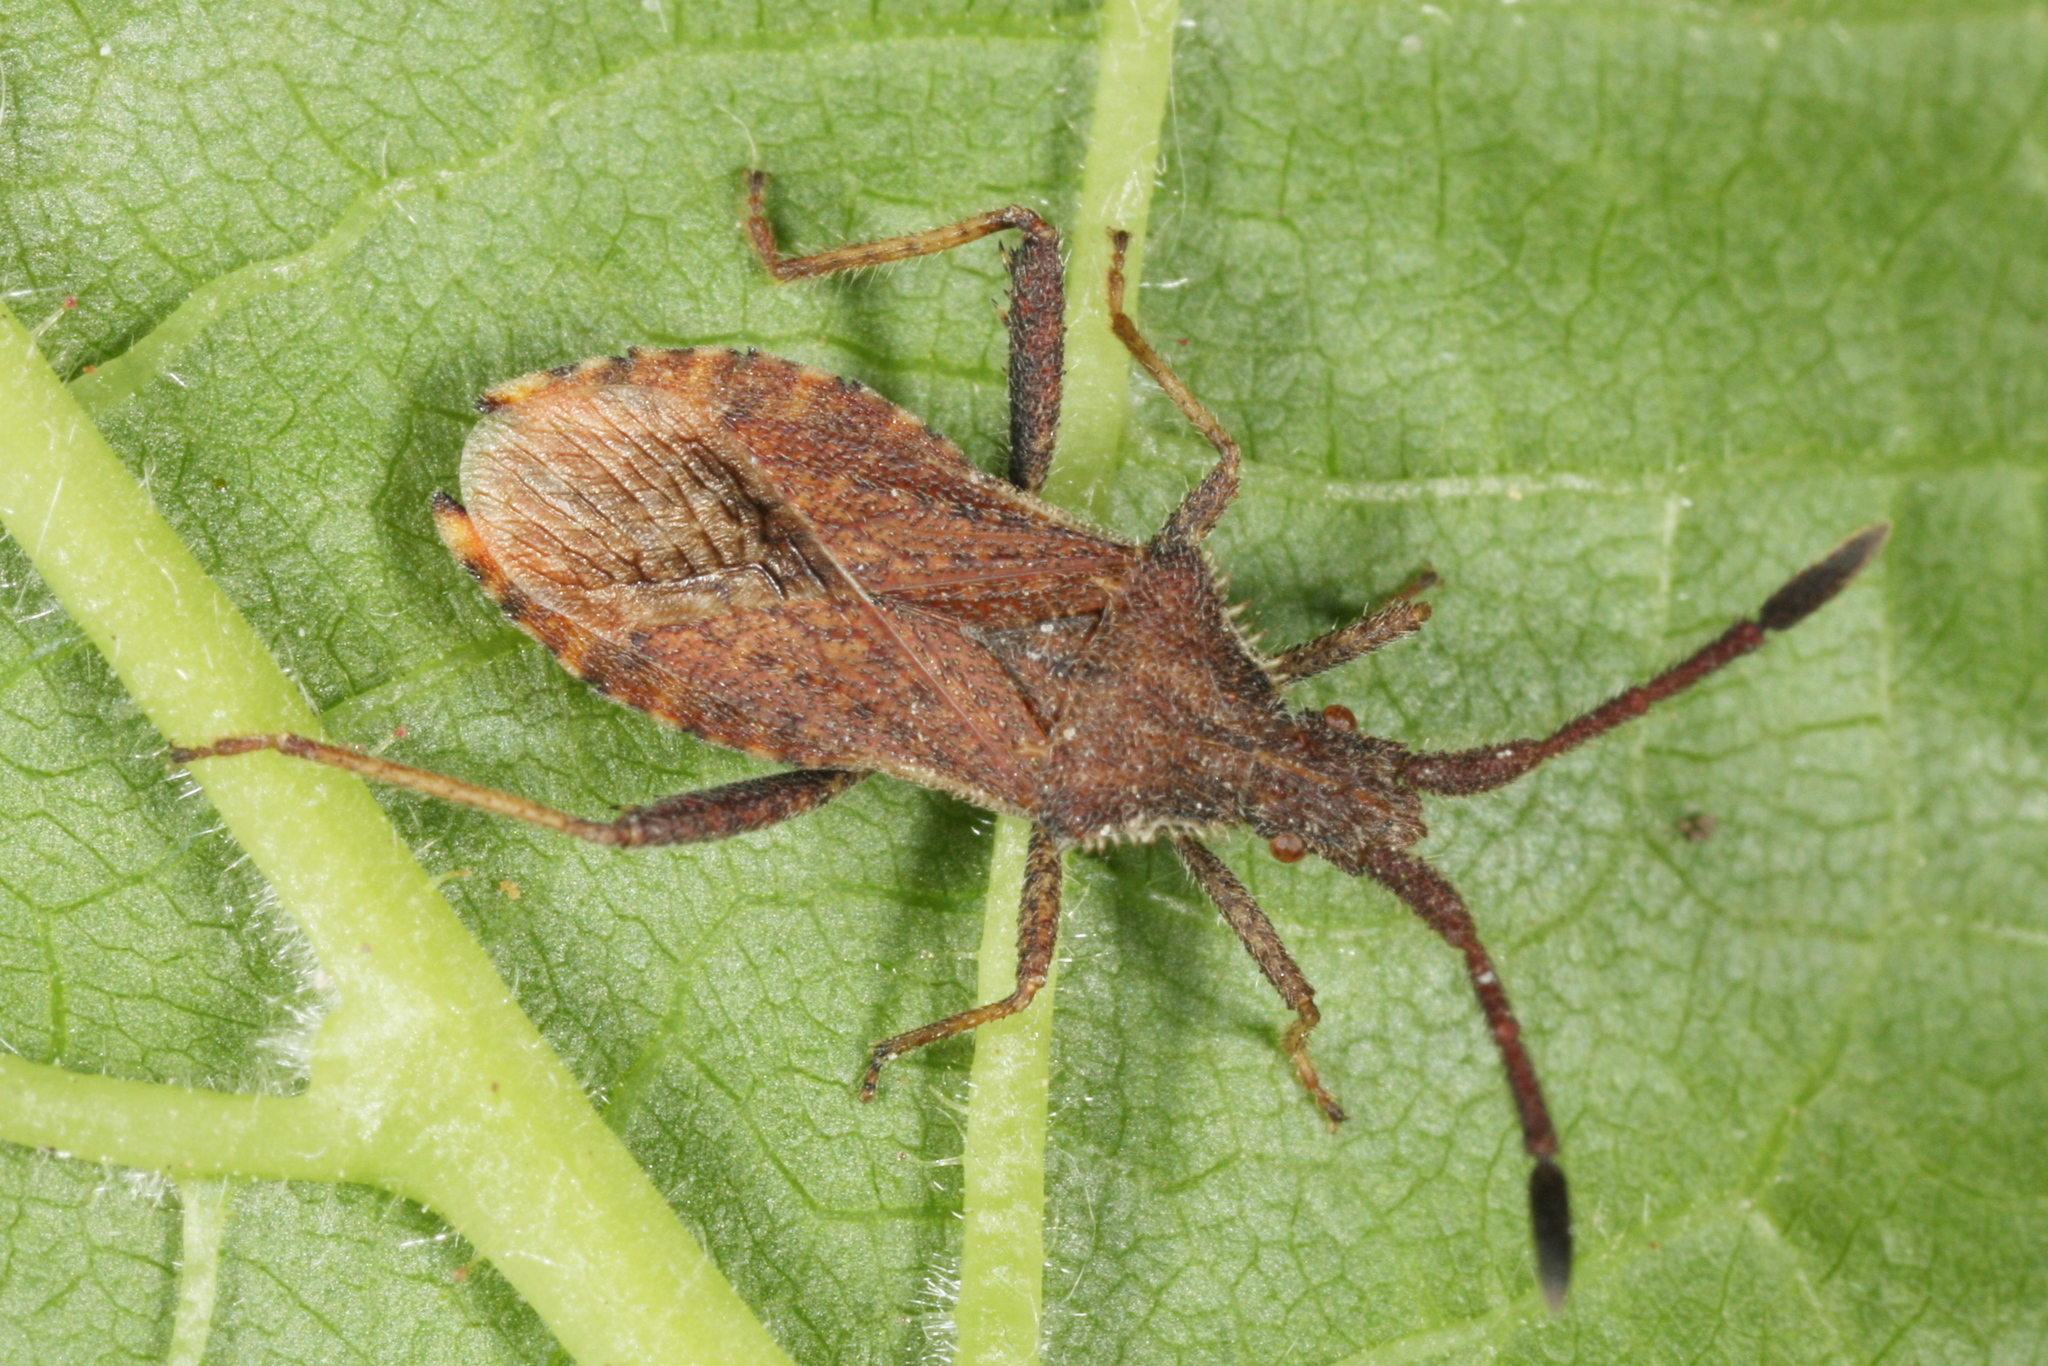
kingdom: Animalia
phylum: Arthropoda
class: Insecta
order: Hemiptera
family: Coreidae
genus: Coriomeris
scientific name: Coriomeris denticulatus
